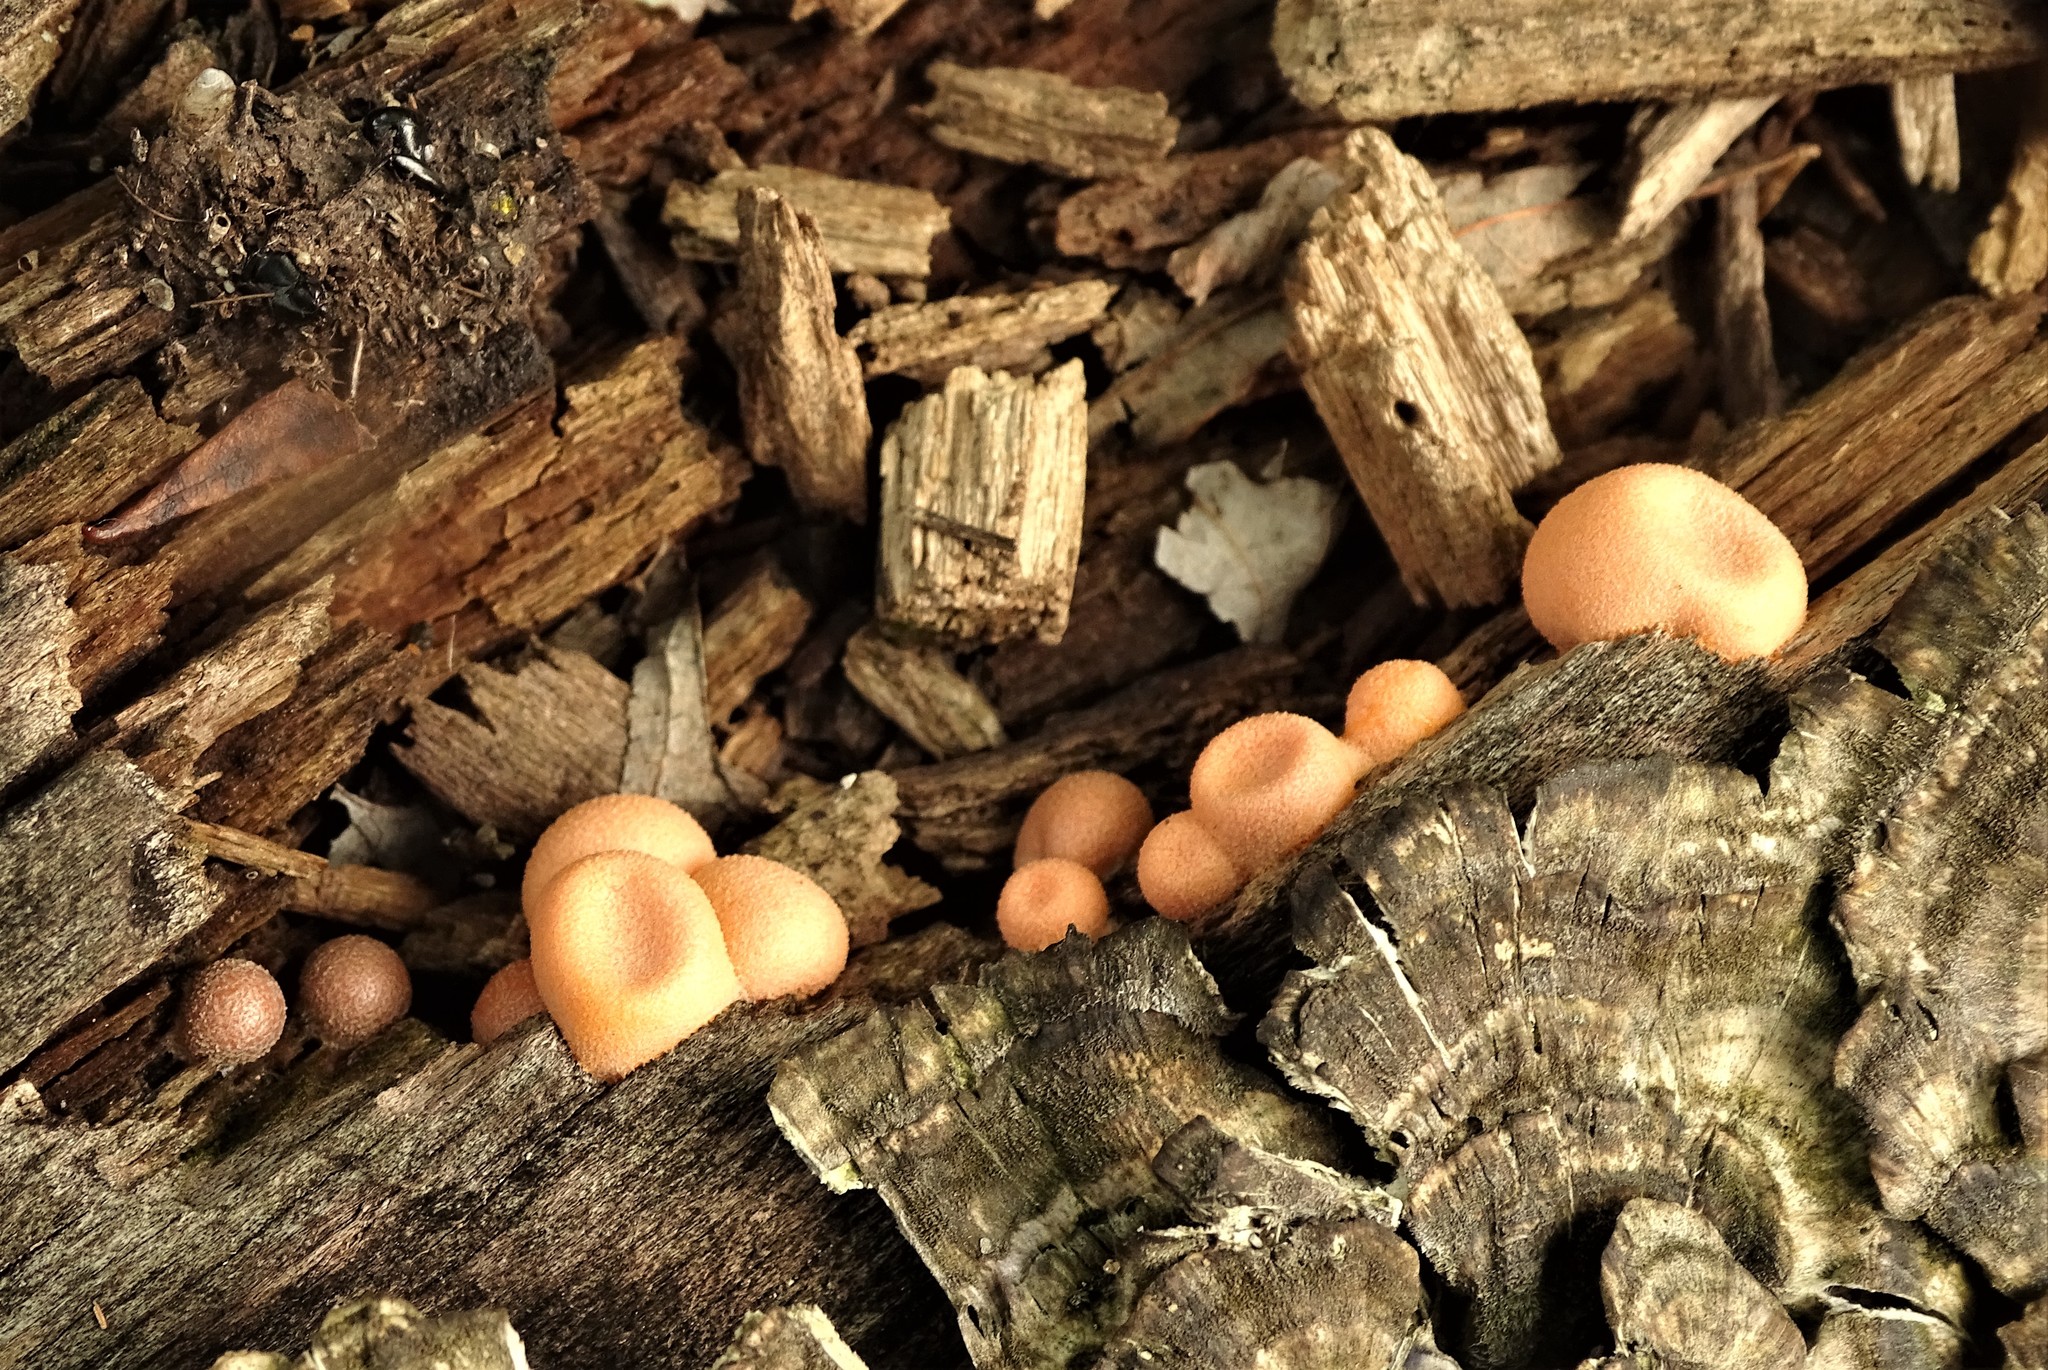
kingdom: Protozoa
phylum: Mycetozoa
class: Myxomycetes
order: Cribrariales
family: Tubiferaceae
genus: Lycogala
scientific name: Lycogala epidendrum
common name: Wolf's milk
